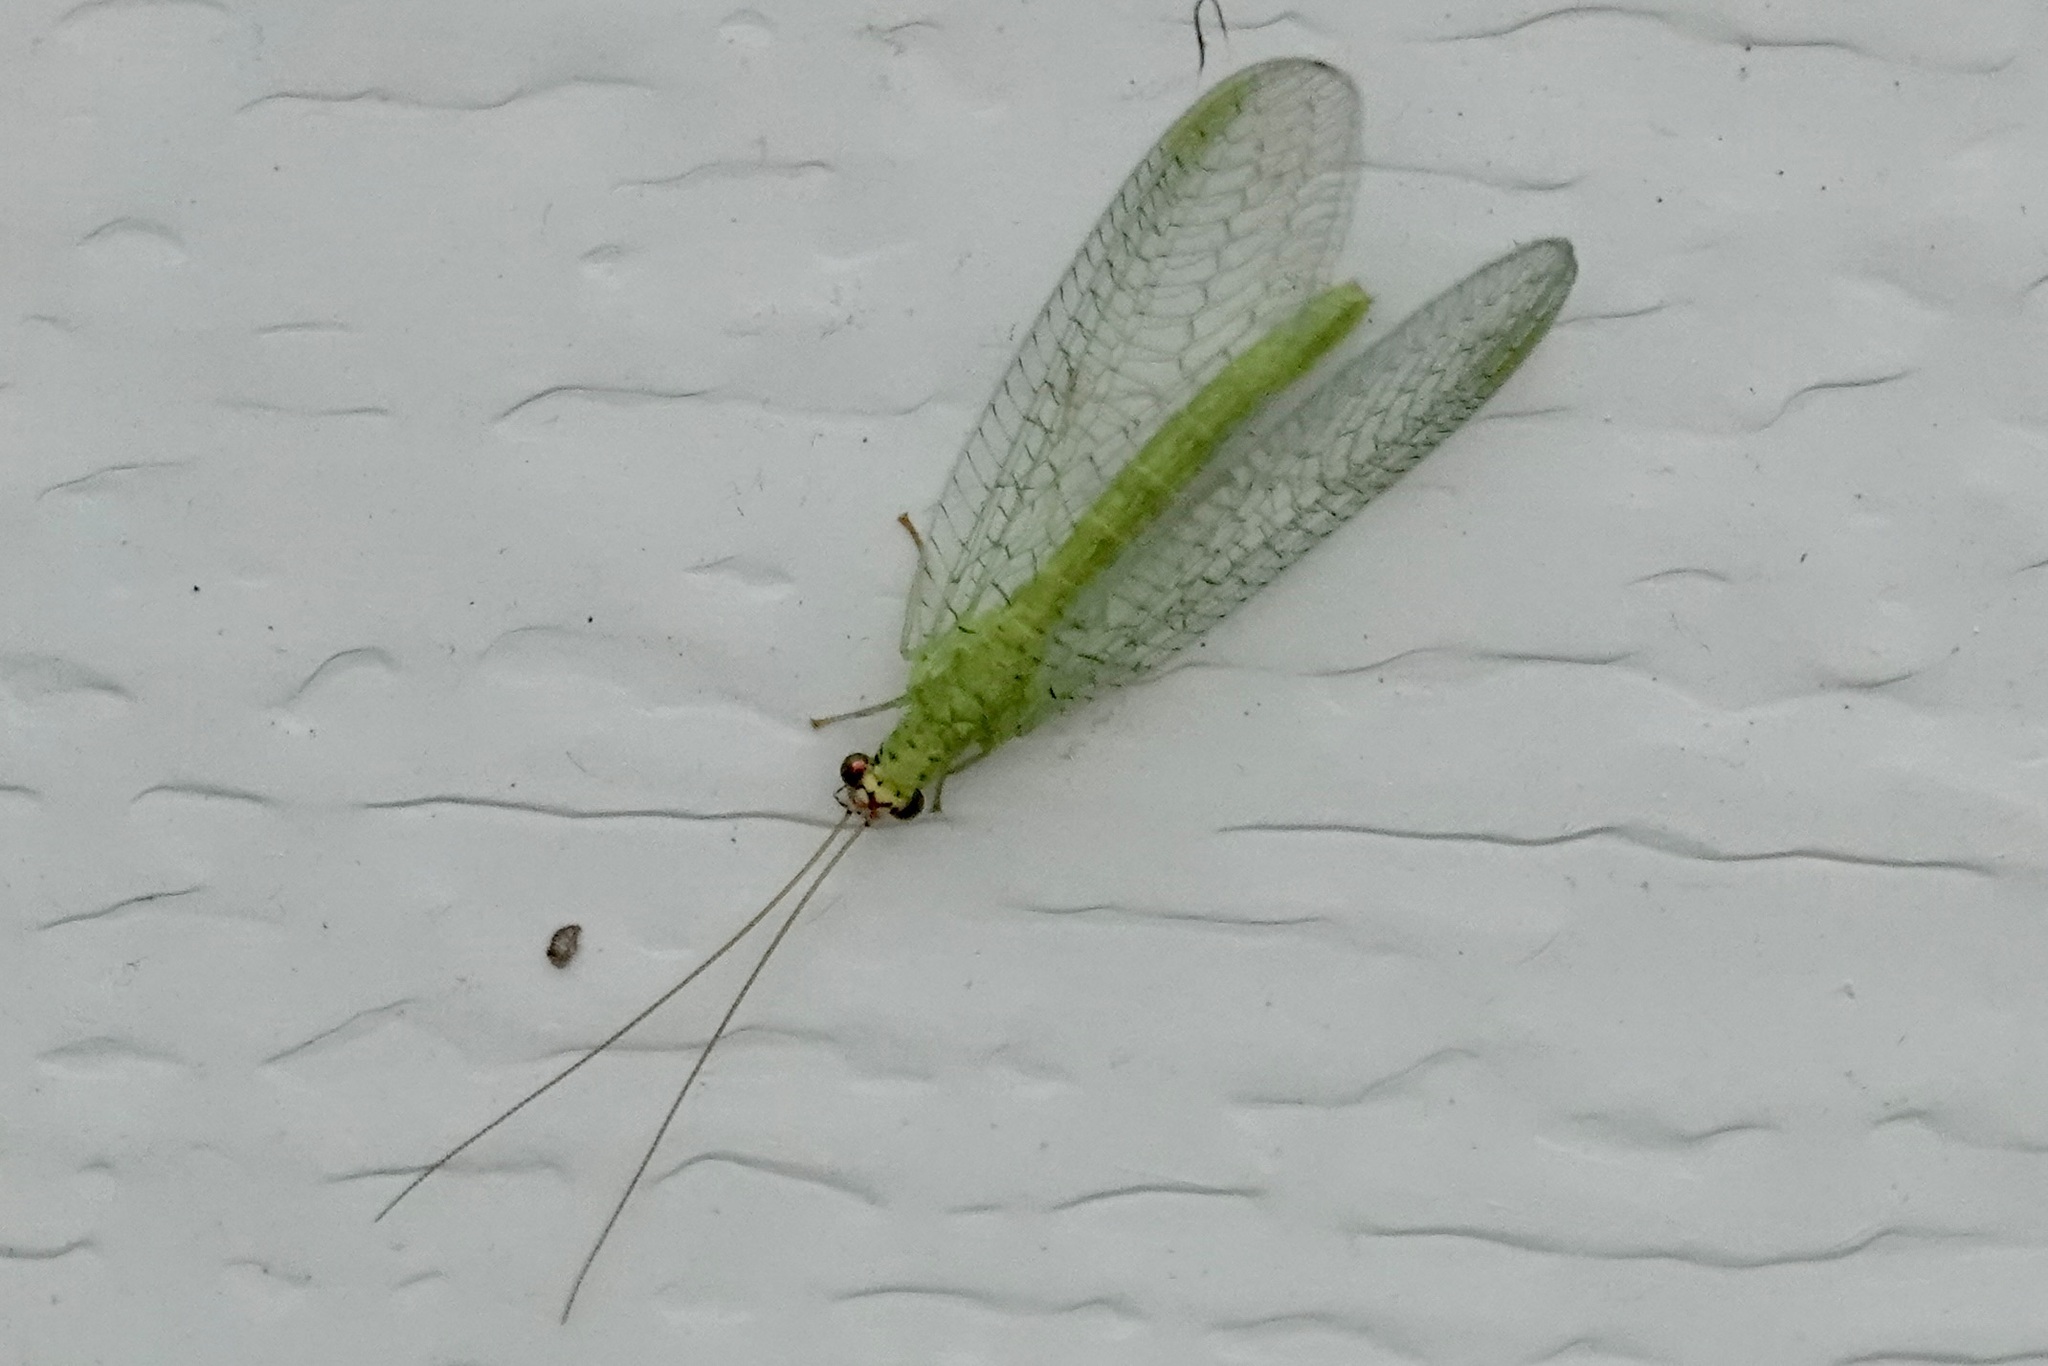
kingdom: Animalia
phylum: Arthropoda
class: Insecta
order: Neuroptera
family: Chrysopidae
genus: Chrysopa
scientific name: Chrysopa oculata
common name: Golden-eyed lacewing
